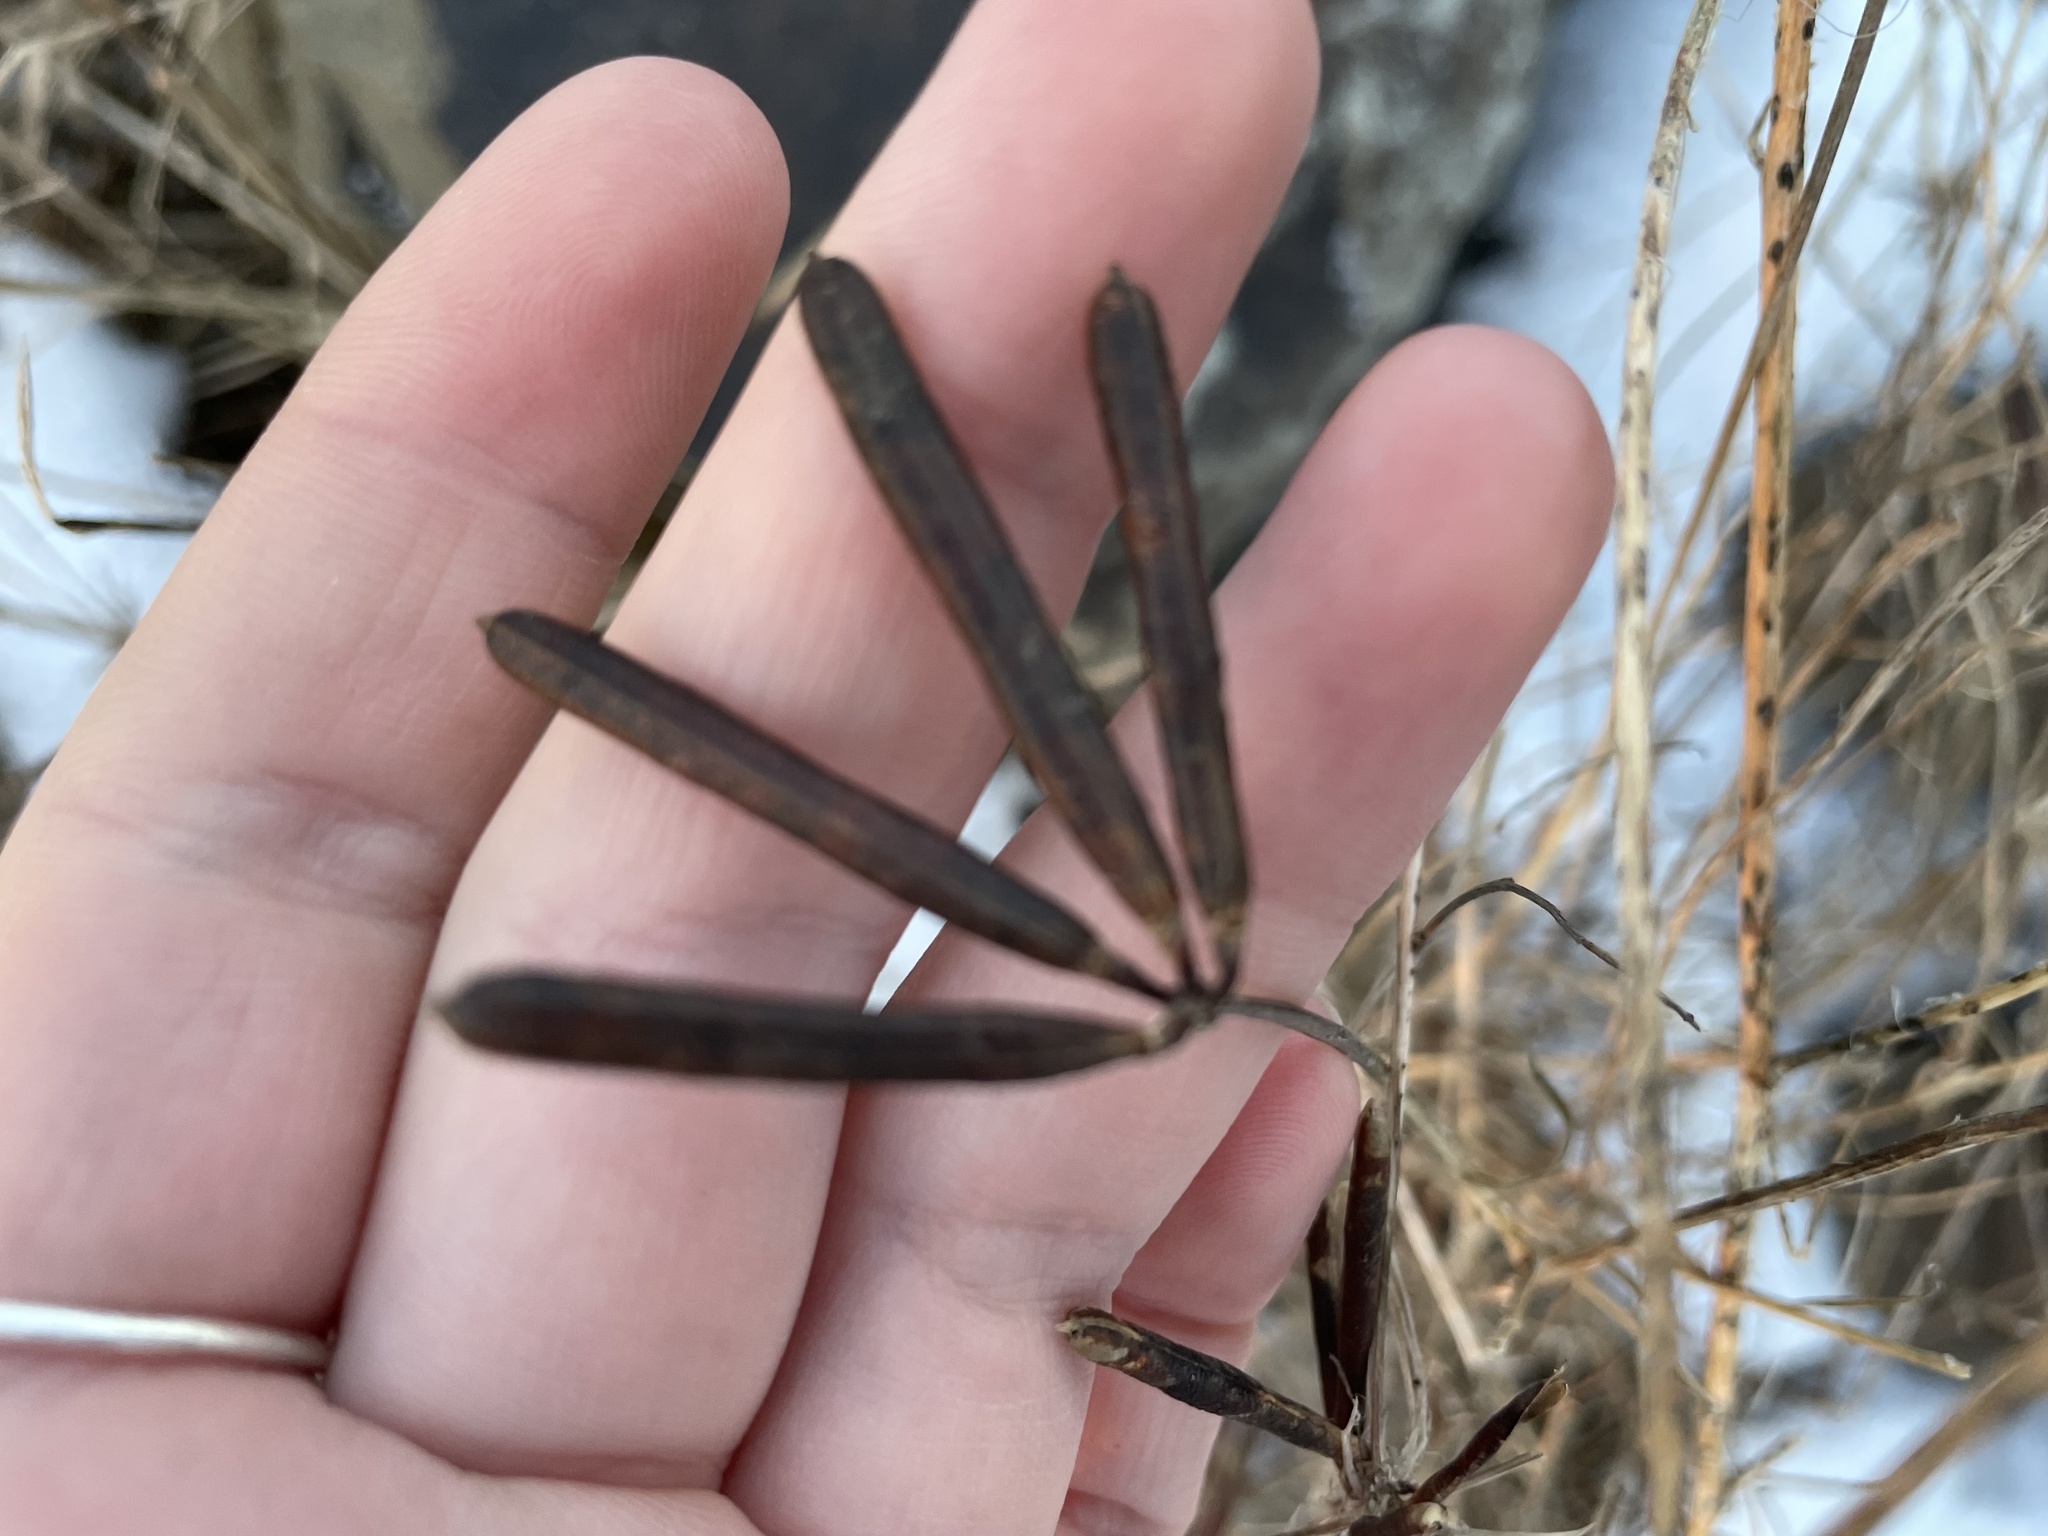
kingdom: Plantae
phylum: Tracheophyta
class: Magnoliopsida
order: Fabales
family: Fabaceae
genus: Lotus
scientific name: Lotus corniculatus
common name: Common bird's-foot-trefoil
